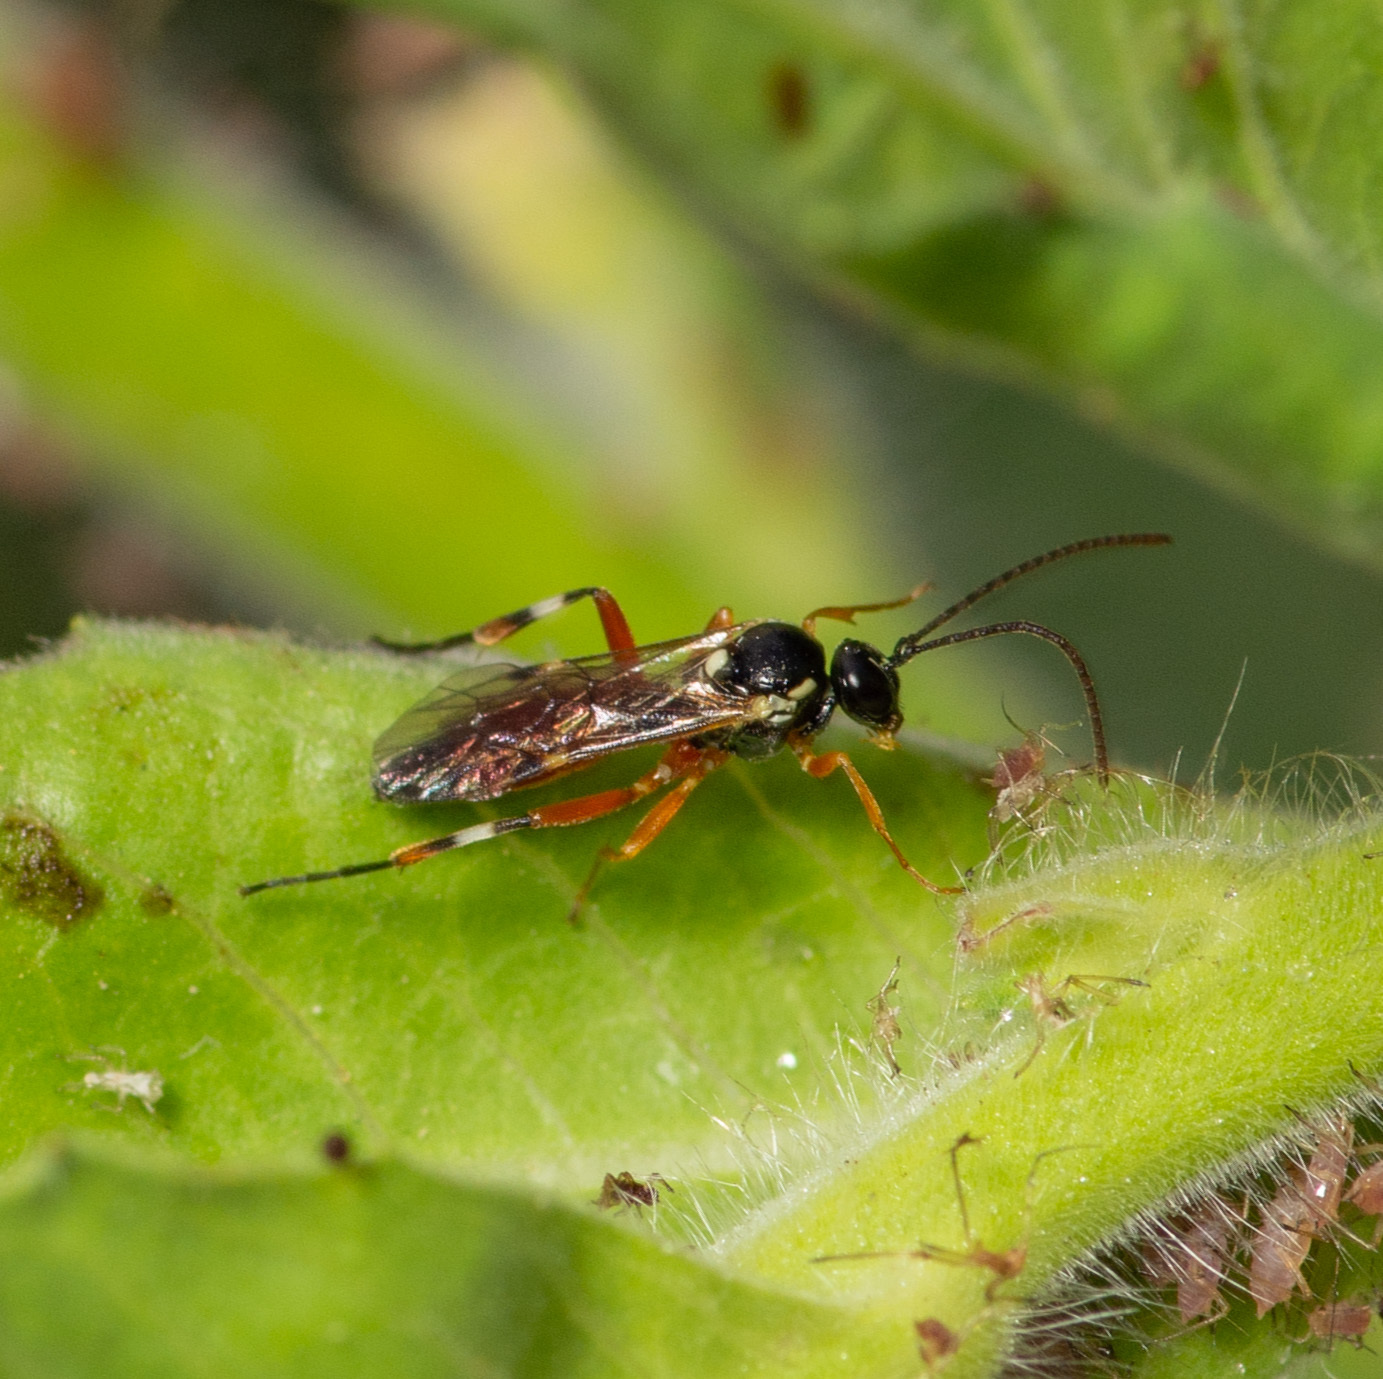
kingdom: Animalia
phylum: Arthropoda
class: Insecta
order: Hymenoptera
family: Ichneumonidae
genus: Diplazon
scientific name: Diplazon laetatorius
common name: Parasitoid wasp
